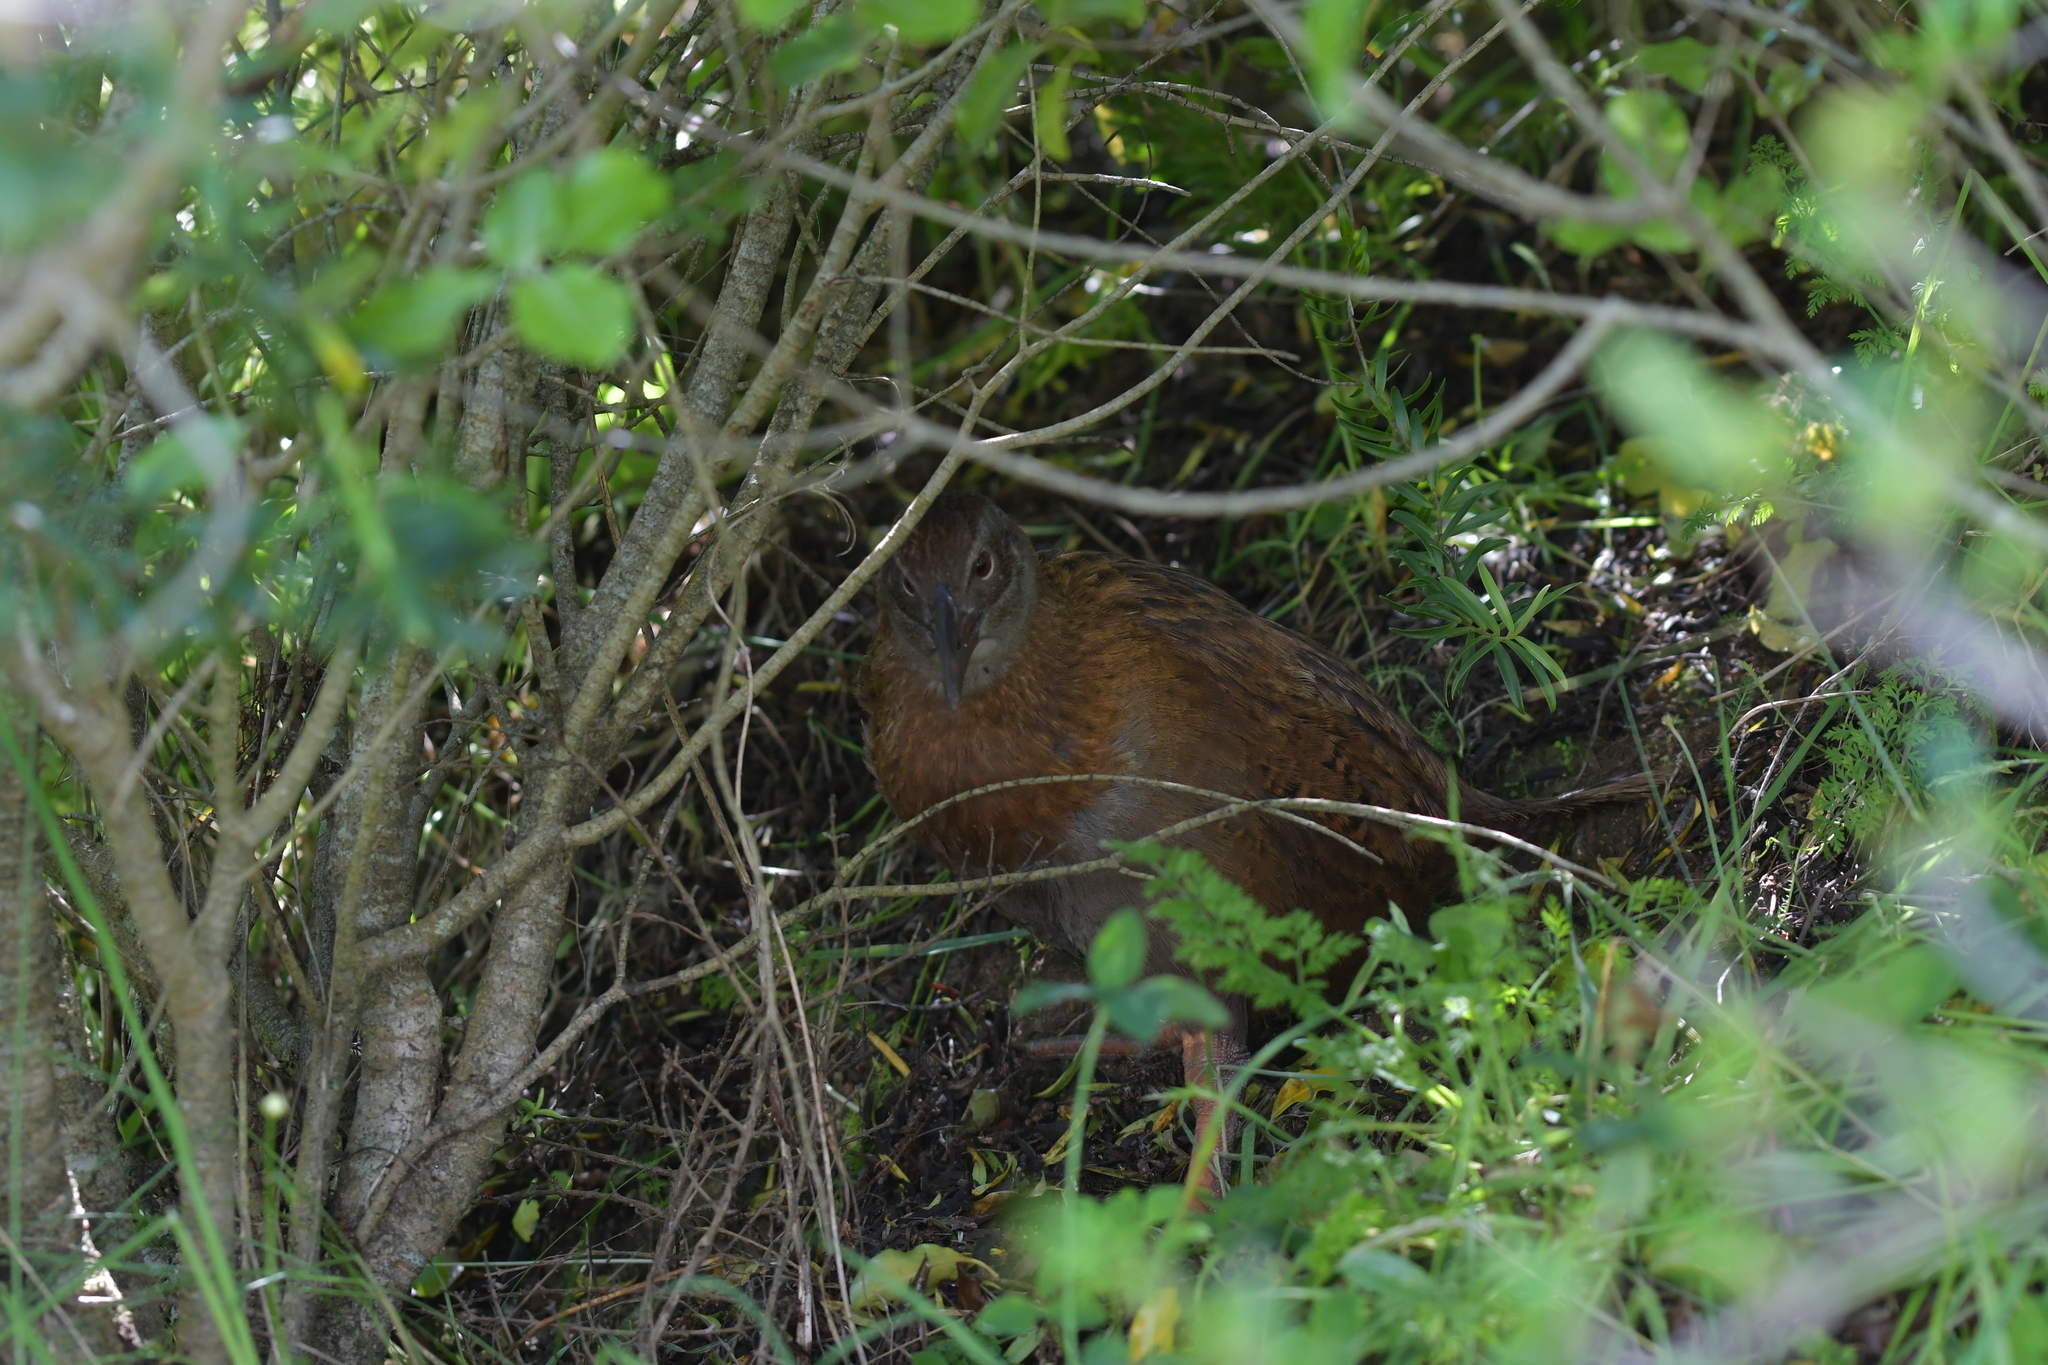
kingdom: Animalia
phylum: Chordata
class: Aves
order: Gruiformes
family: Rallidae
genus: Gallirallus
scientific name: Gallirallus australis
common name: Weka
